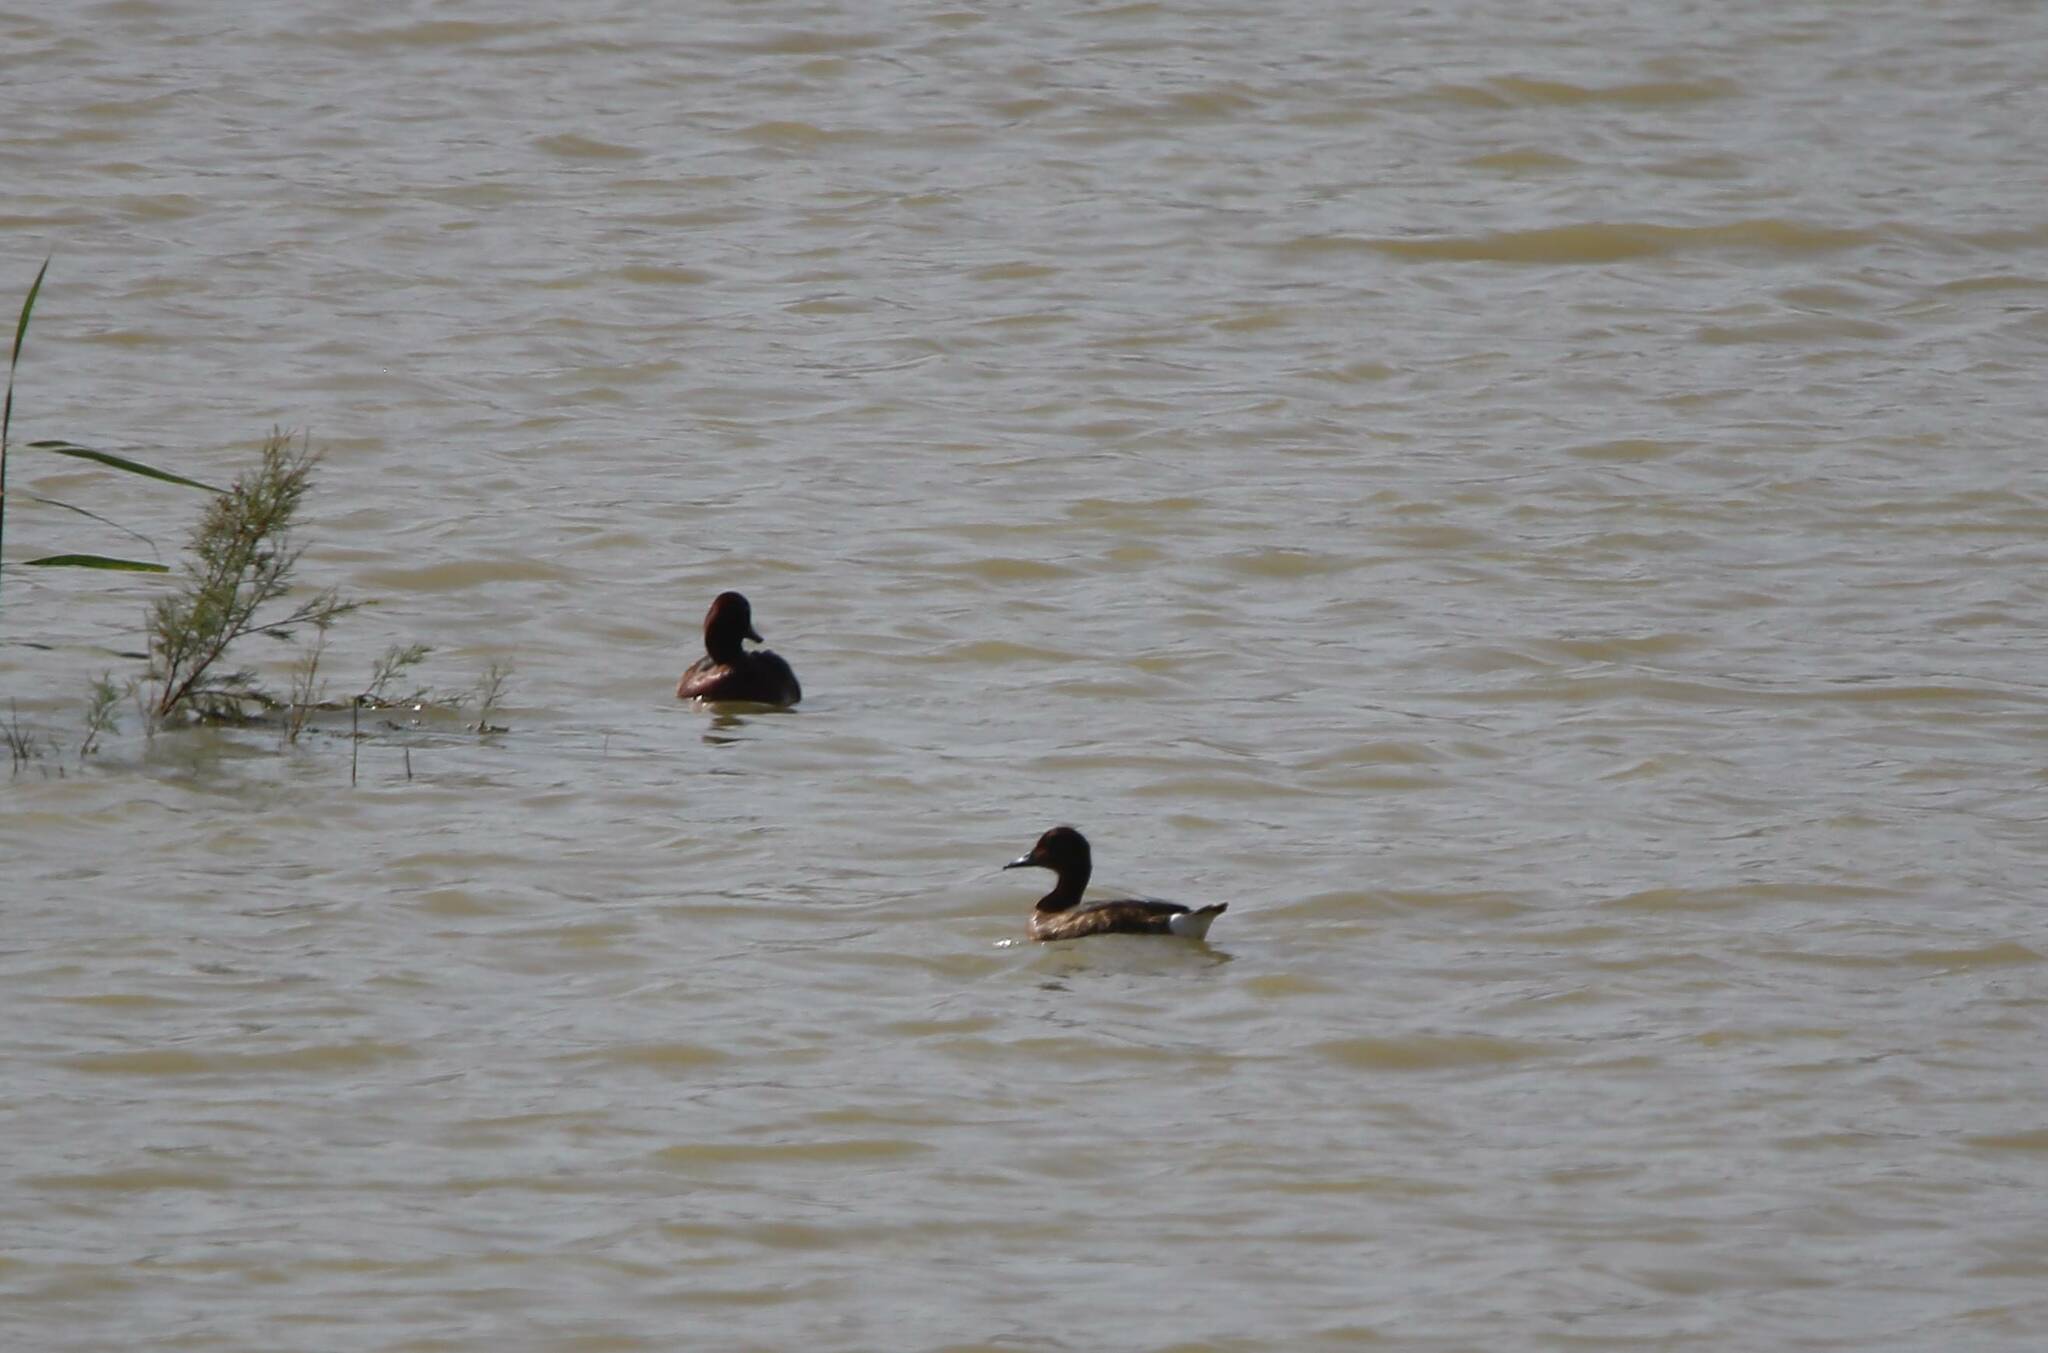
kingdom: Animalia
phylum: Chordata
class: Aves
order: Anseriformes
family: Anatidae
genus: Aythya
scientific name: Aythya nyroca
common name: Ferruginous duck
